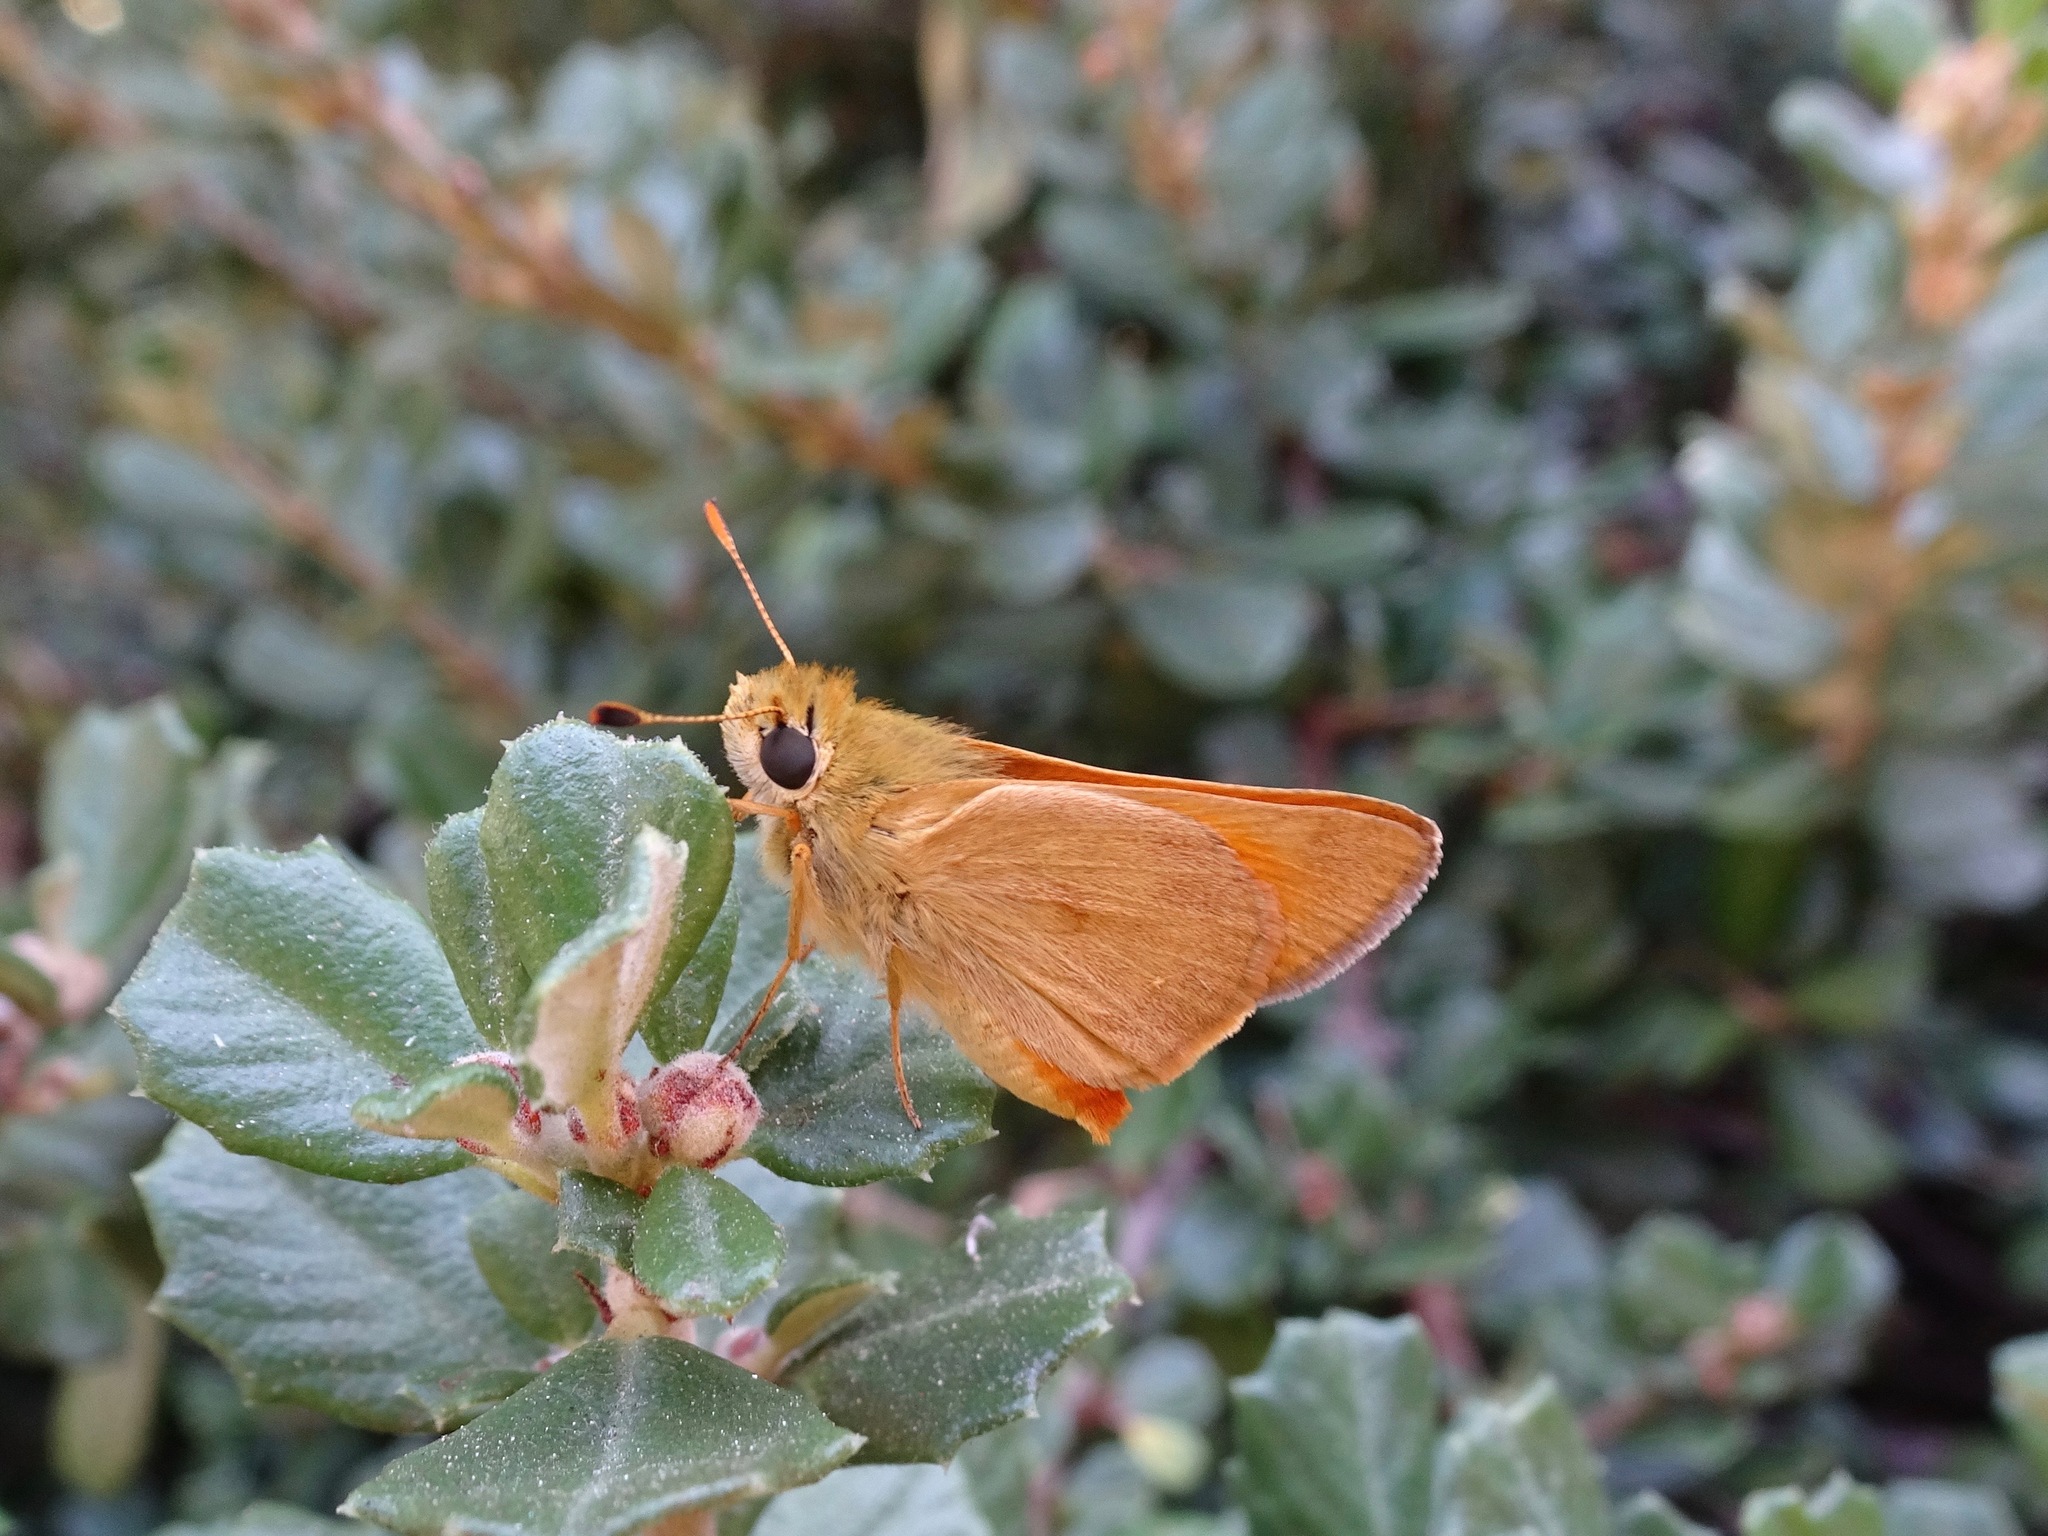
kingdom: Animalia
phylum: Arthropoda
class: Insecta
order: Lepidoptera
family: Hesperiidae
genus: Ochlodes
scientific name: Ochlodes sylvanoides
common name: Woodland skipper
